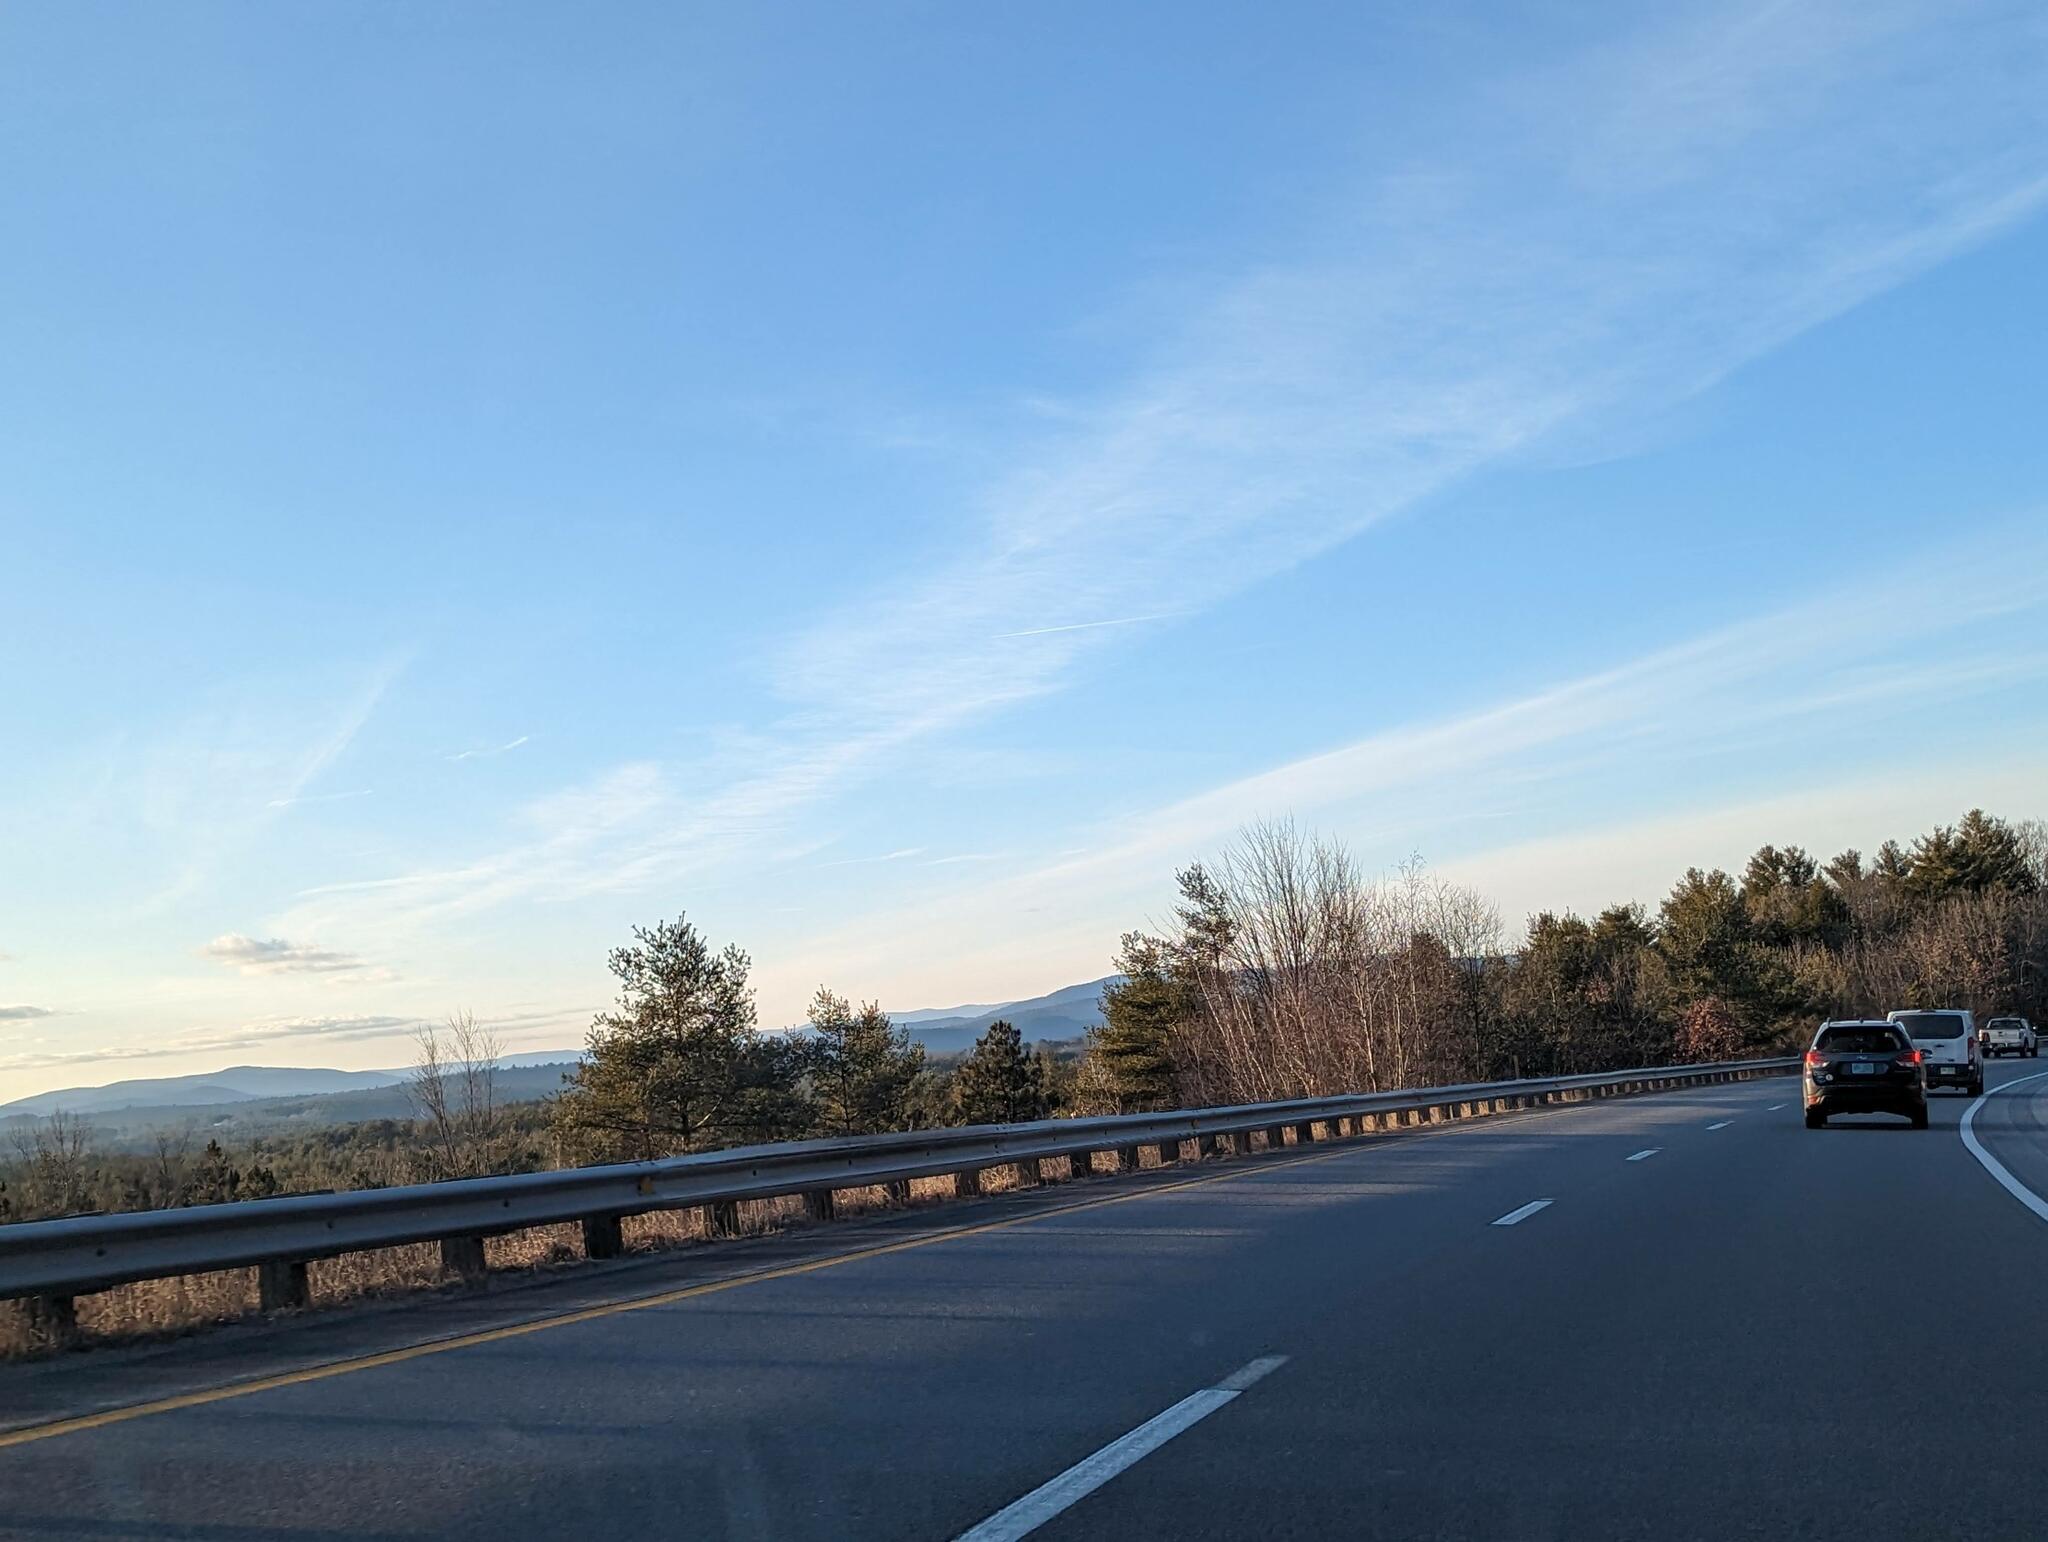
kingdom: Plantae
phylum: Tracheophyta
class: Pinopsida
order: Pinales
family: Pinaceae
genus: Pinus
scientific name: Pinus strobus
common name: Weymouth pine
